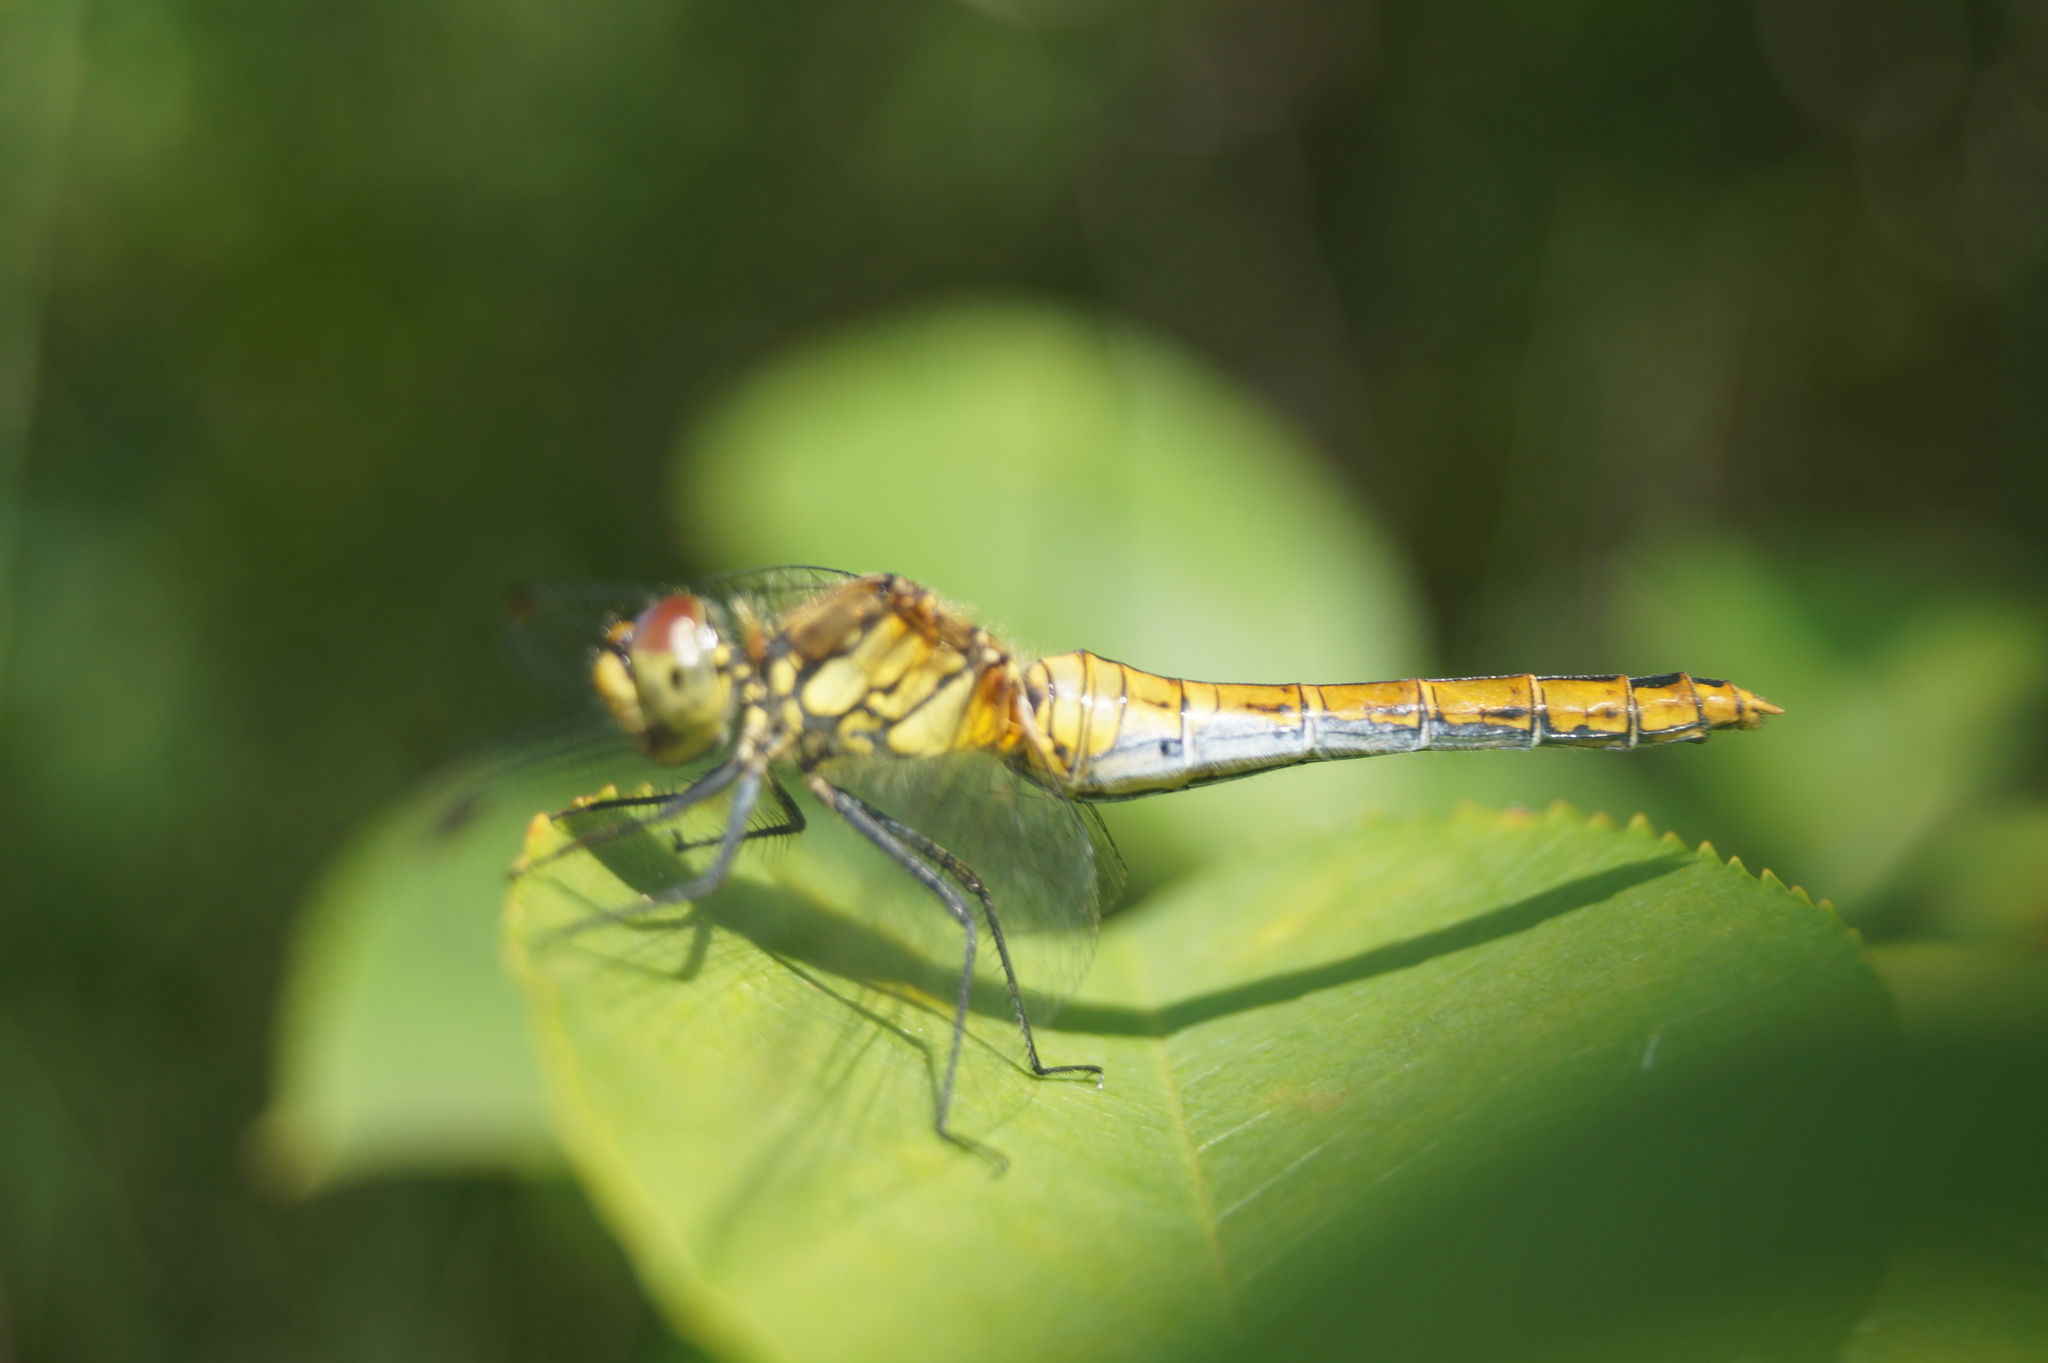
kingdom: Animalia
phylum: Arthropoda
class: Insecta
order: Odonata
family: Libellulidae
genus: Sympetrum
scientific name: Sympetrum sanguineum
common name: Ruddy darter
